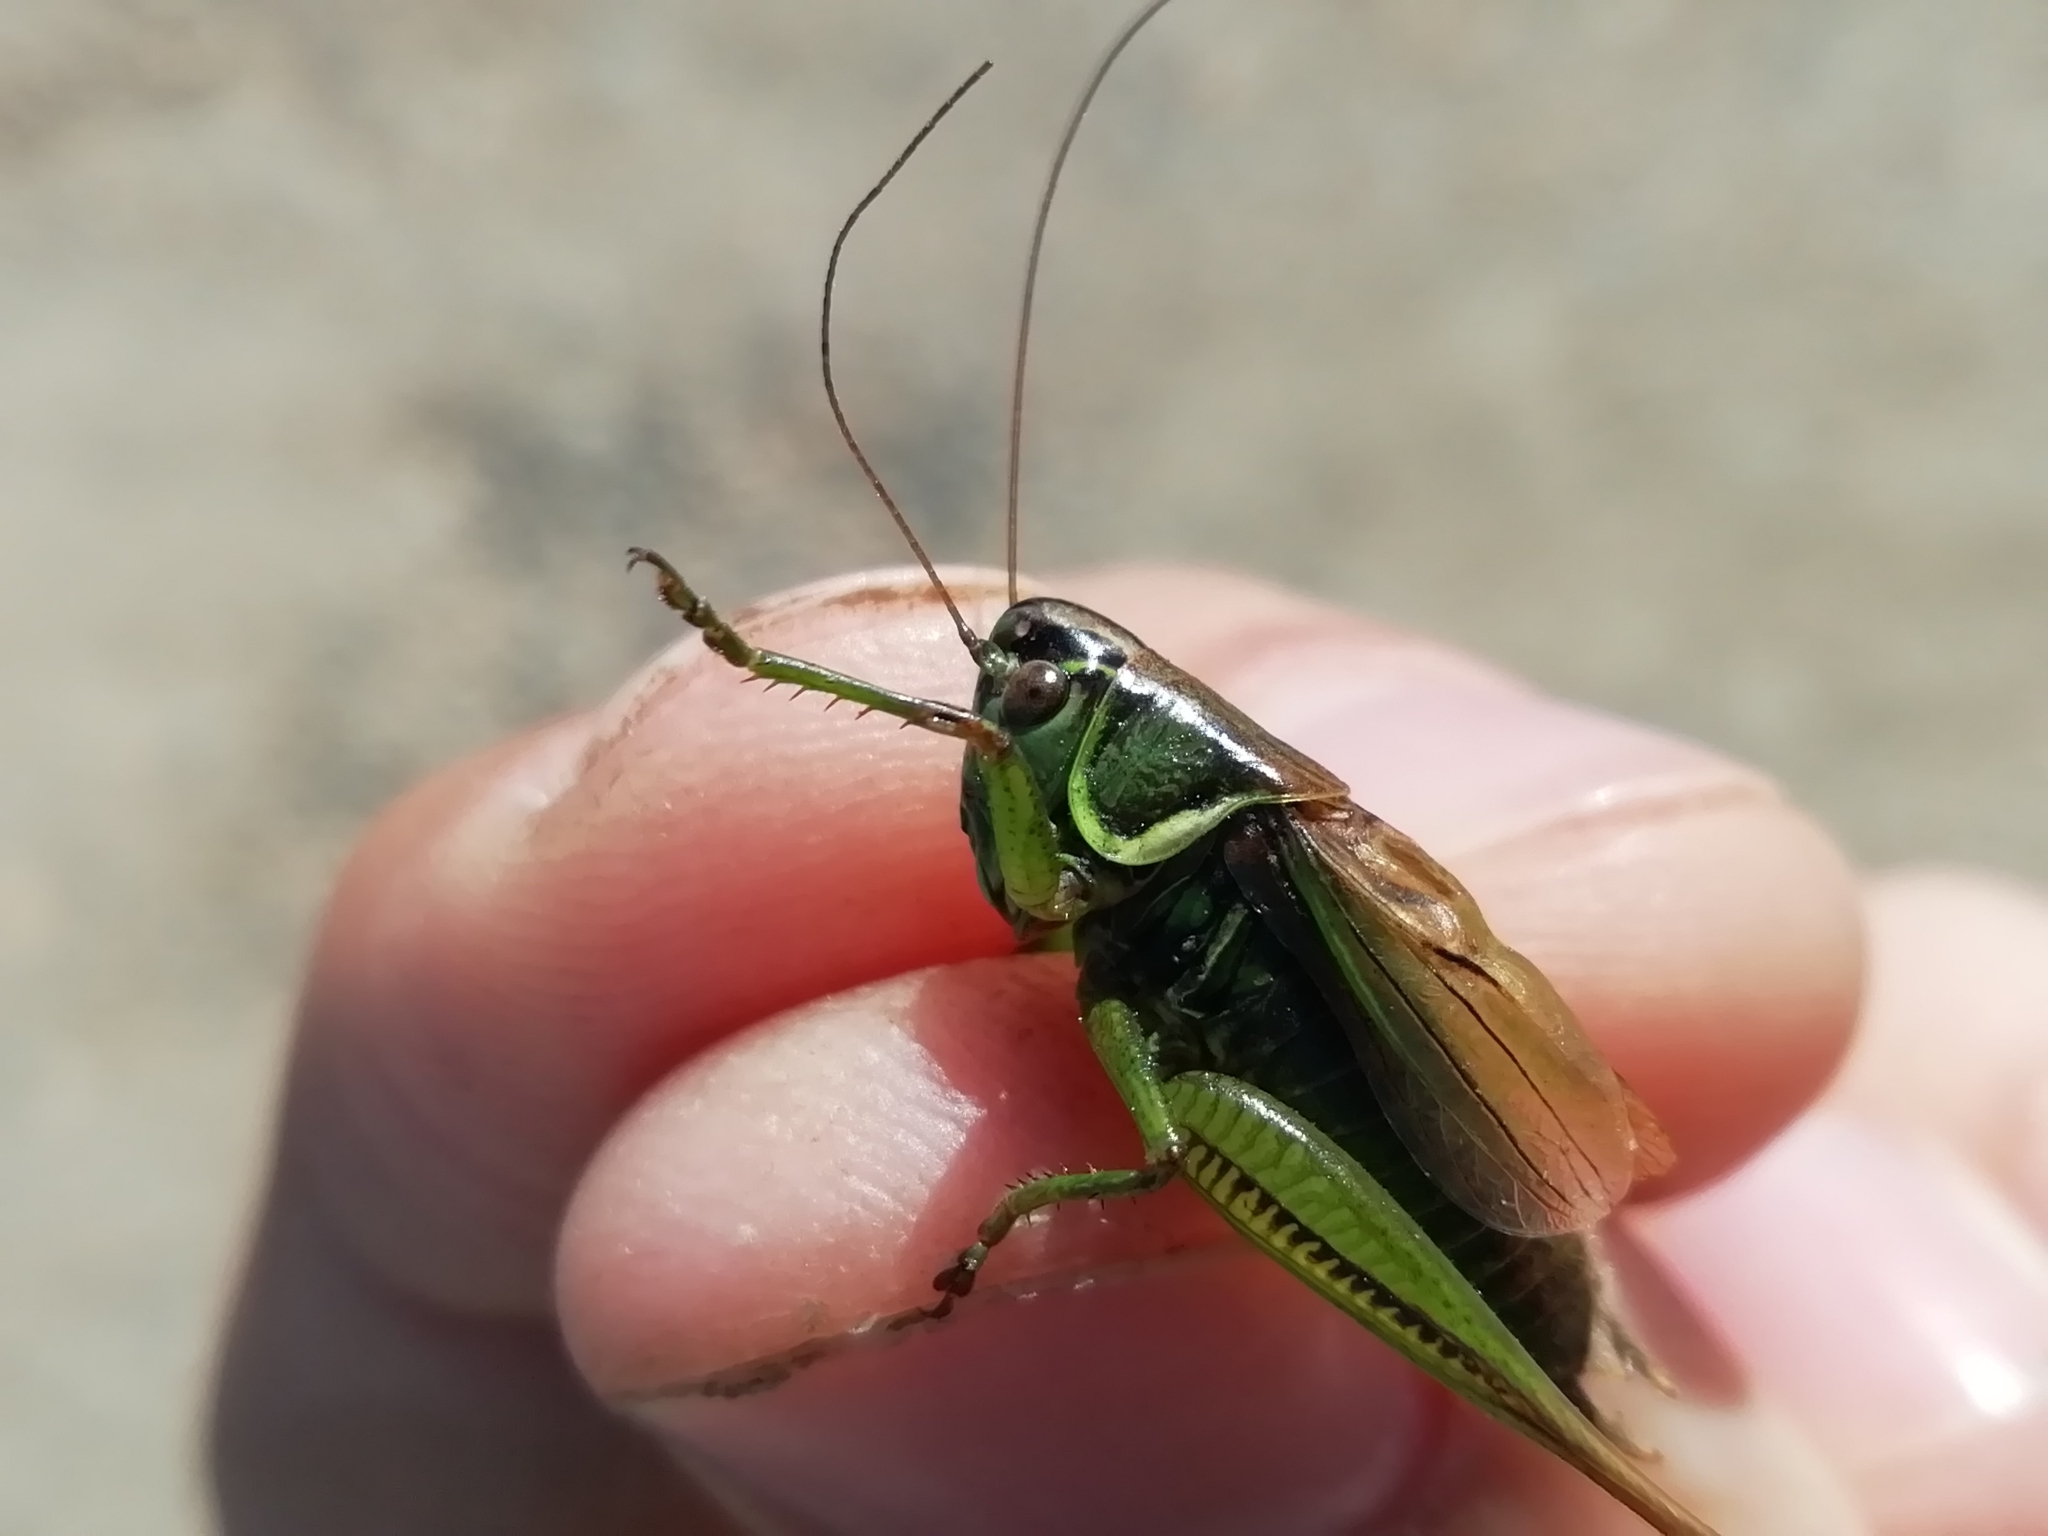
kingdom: Animalia
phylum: Arthropoda
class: Insecta
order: Orthoptera
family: Tettigoniidae
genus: Roeseliana
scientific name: Roeseliana roeselii
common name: Roesel's bush cricket
